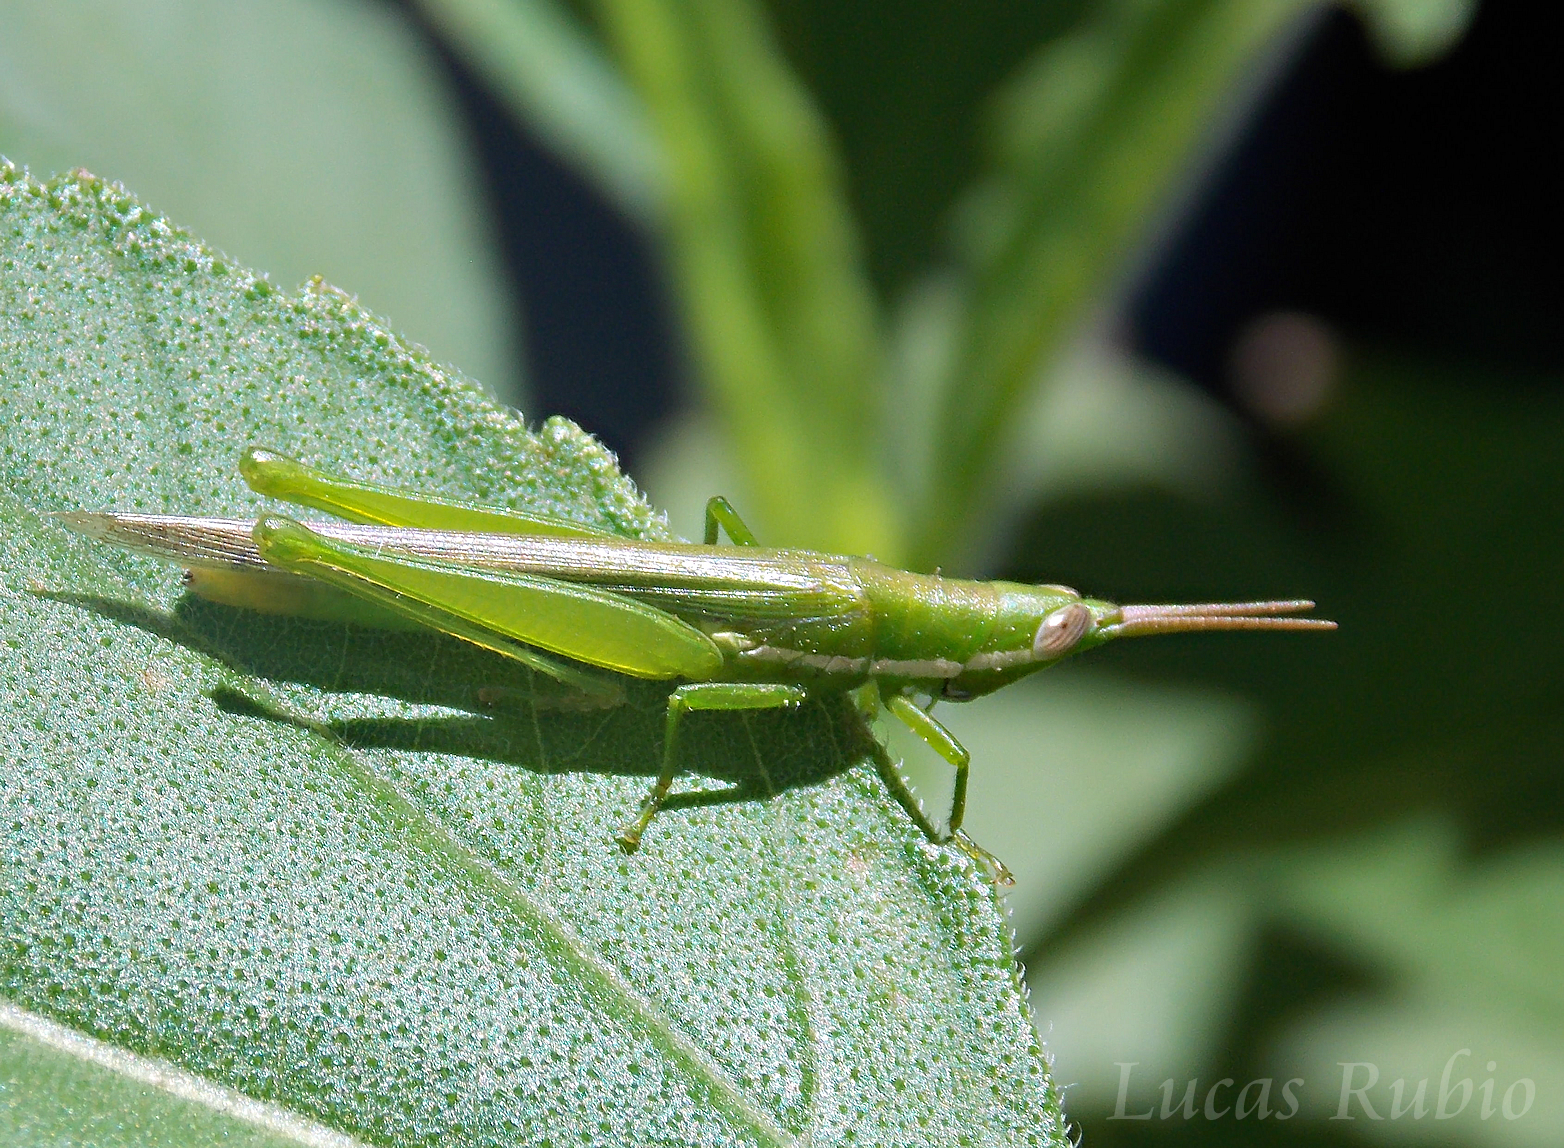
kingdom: Animalia
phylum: Arthropoda
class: Insecta
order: Orthoptera
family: Acrididae
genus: Tucayaca
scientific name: Tucayaca gracilis
